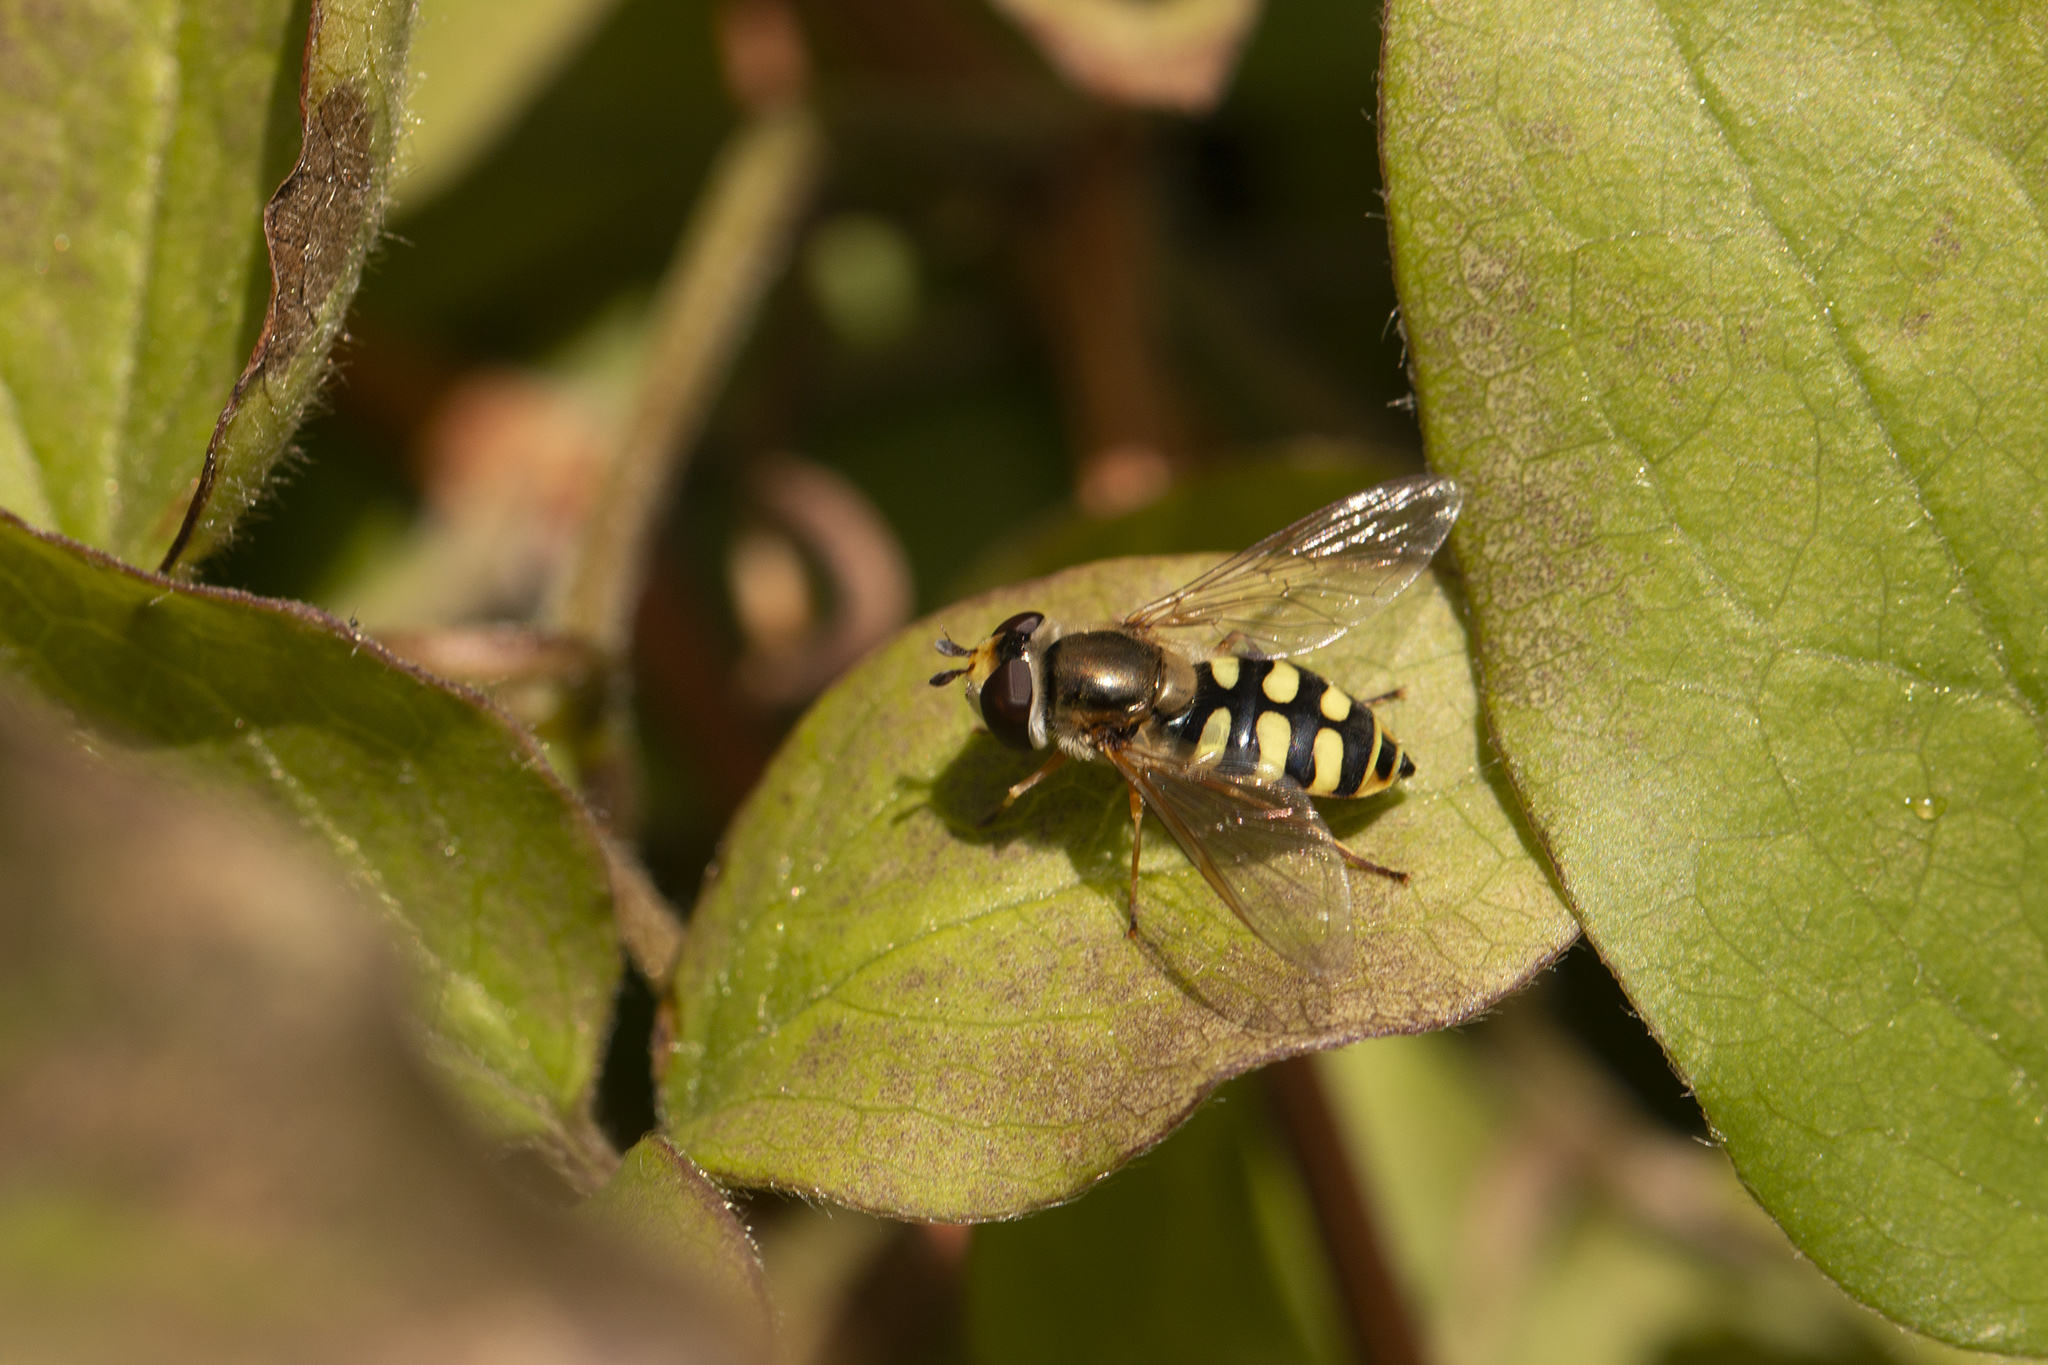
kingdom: Animalia
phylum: Arthropoda
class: Insecta
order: Diptera
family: Syrphidae
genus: Eupeodes
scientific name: Eupeodes corollae
